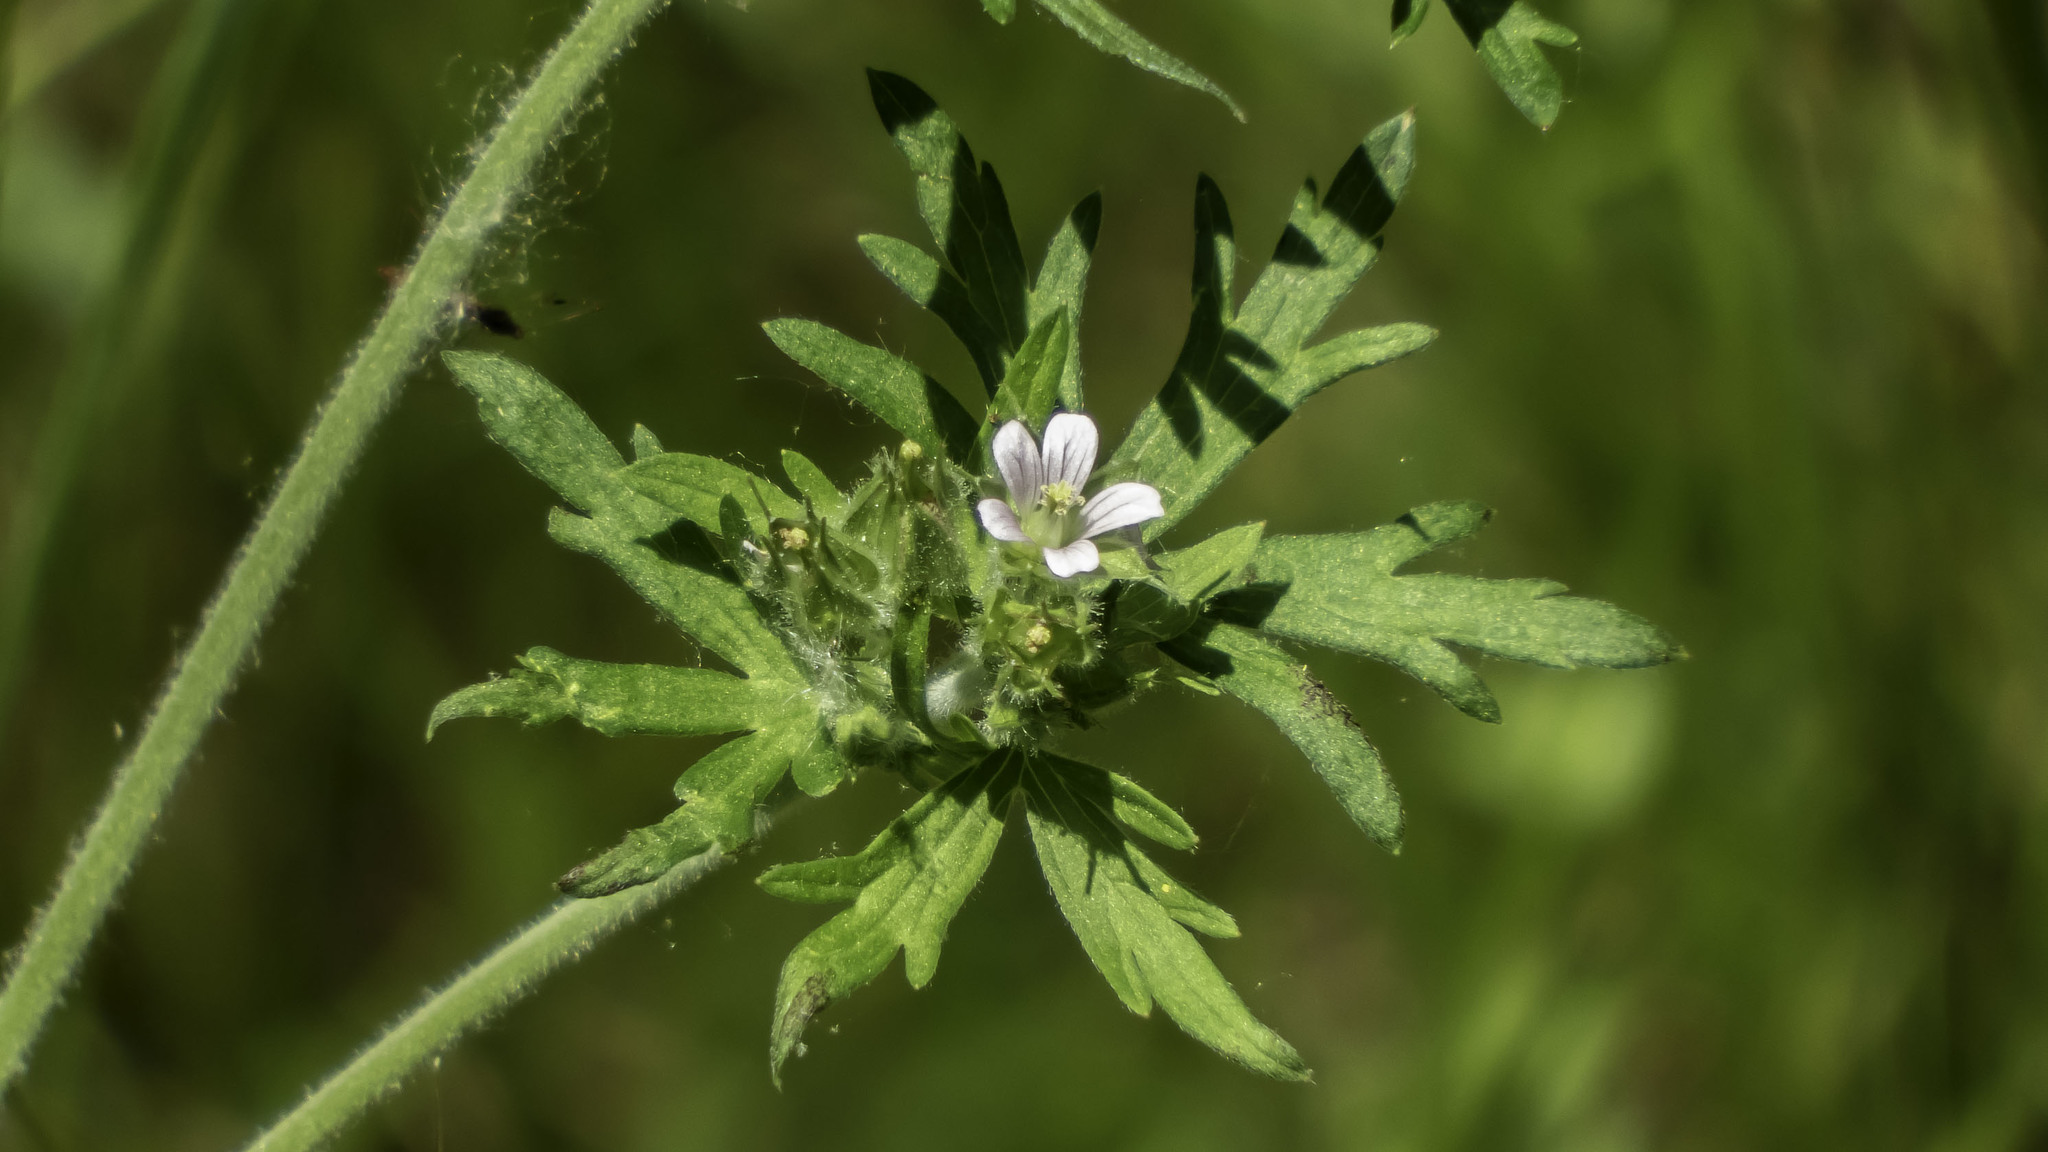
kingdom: Plantae
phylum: Tracheophyta
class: Magnoliopsida
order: Geraniales
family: Geraniaceae
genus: Geranium
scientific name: Geranium carolinianum
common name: Carolina crane's-bill
